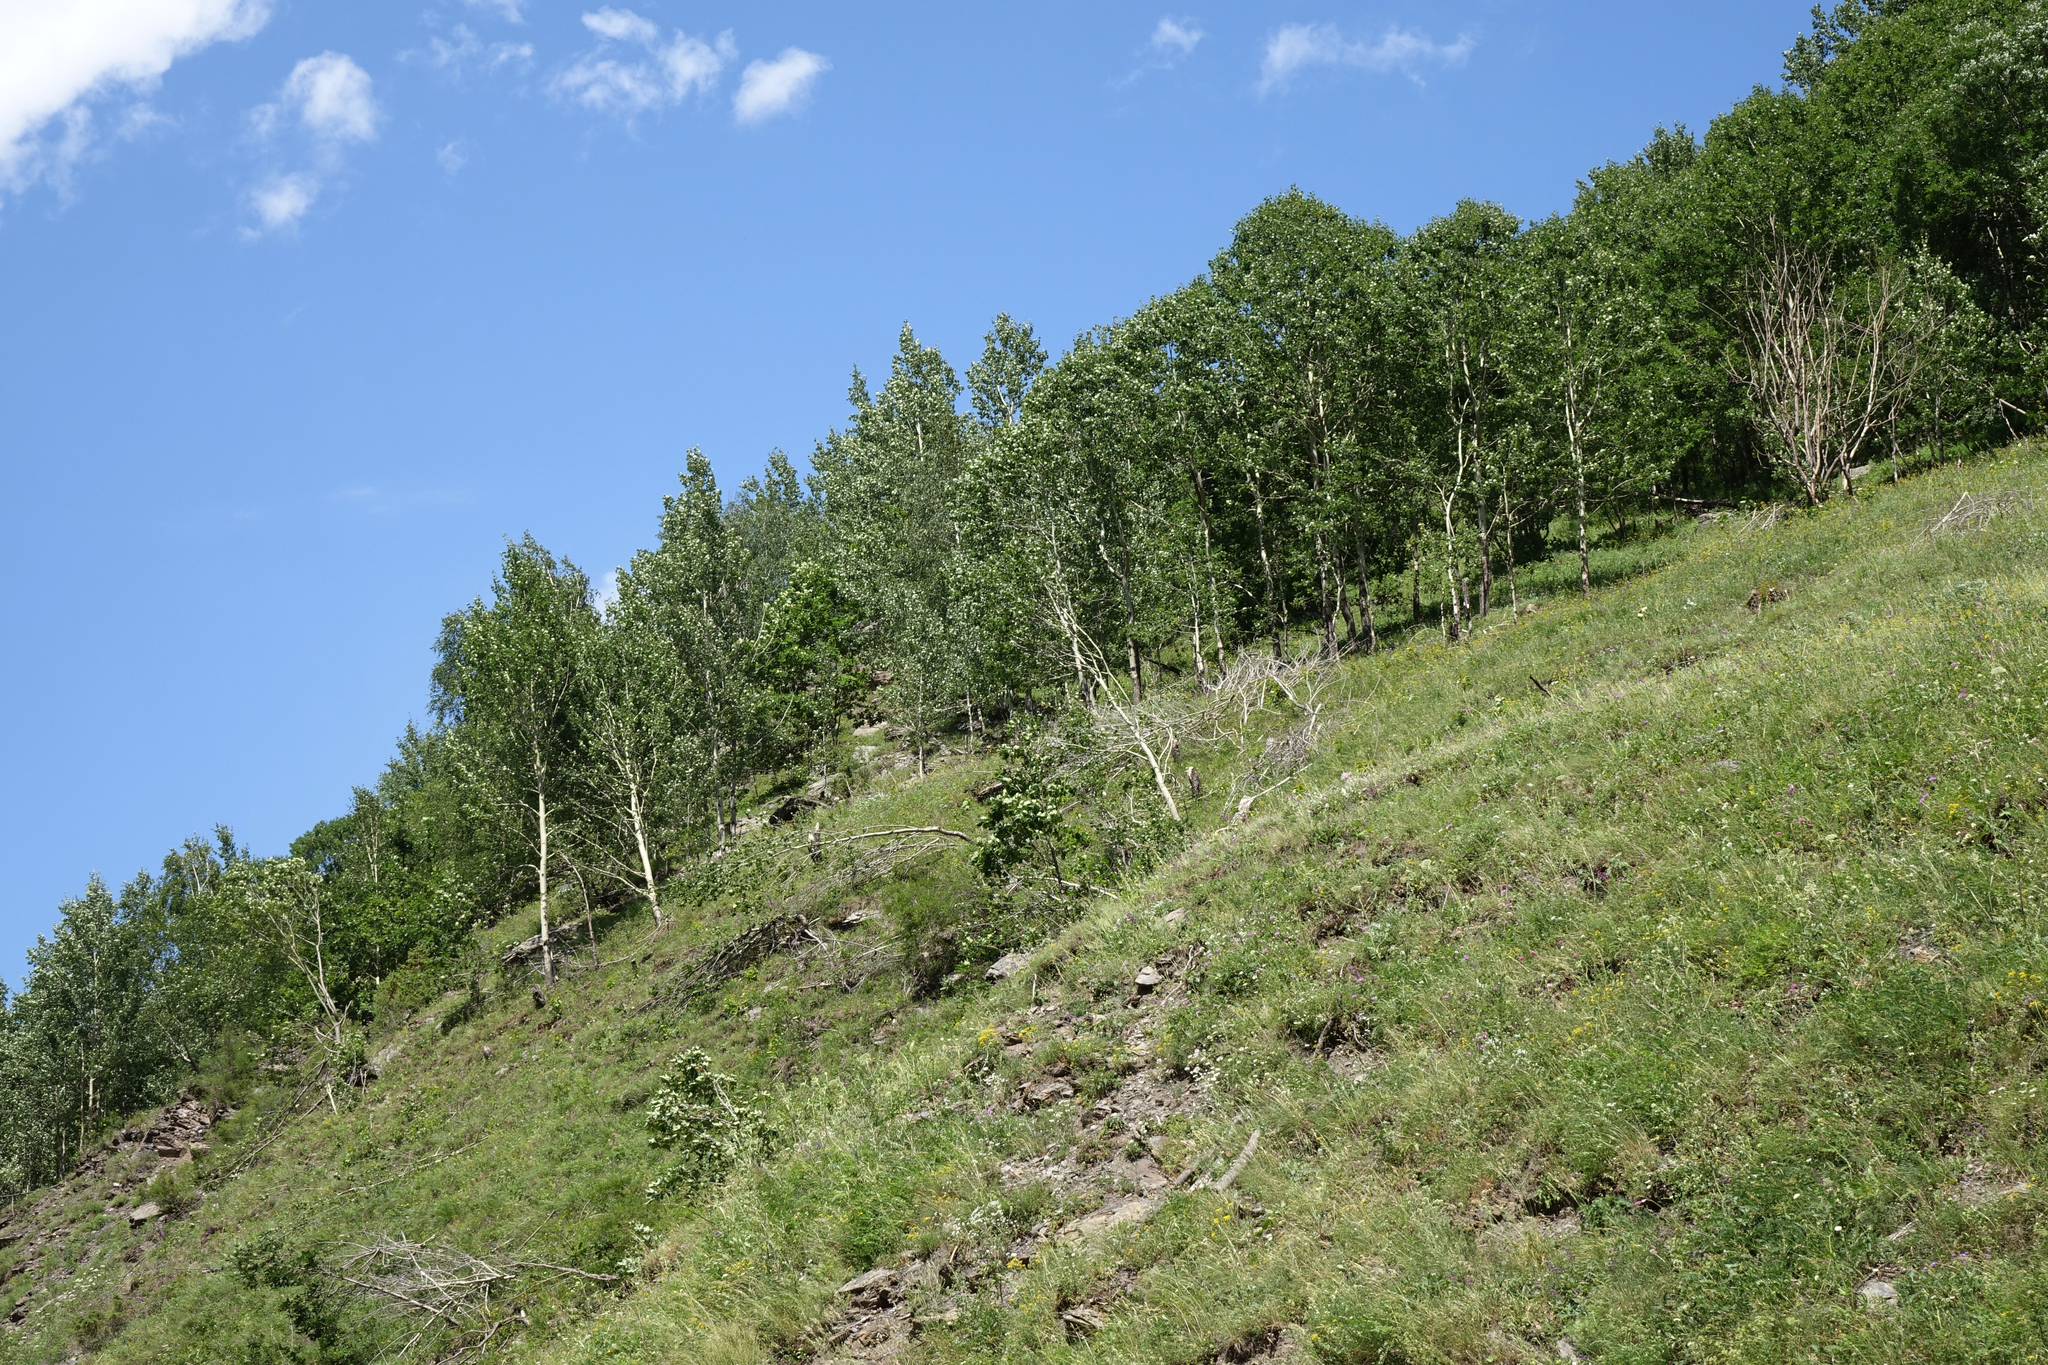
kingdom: Plantae
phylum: Tracheophyta
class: Magnoliopsida
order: Malpighiales
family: Salicaceae
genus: Populus
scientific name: Populus tremula
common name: European aspen
